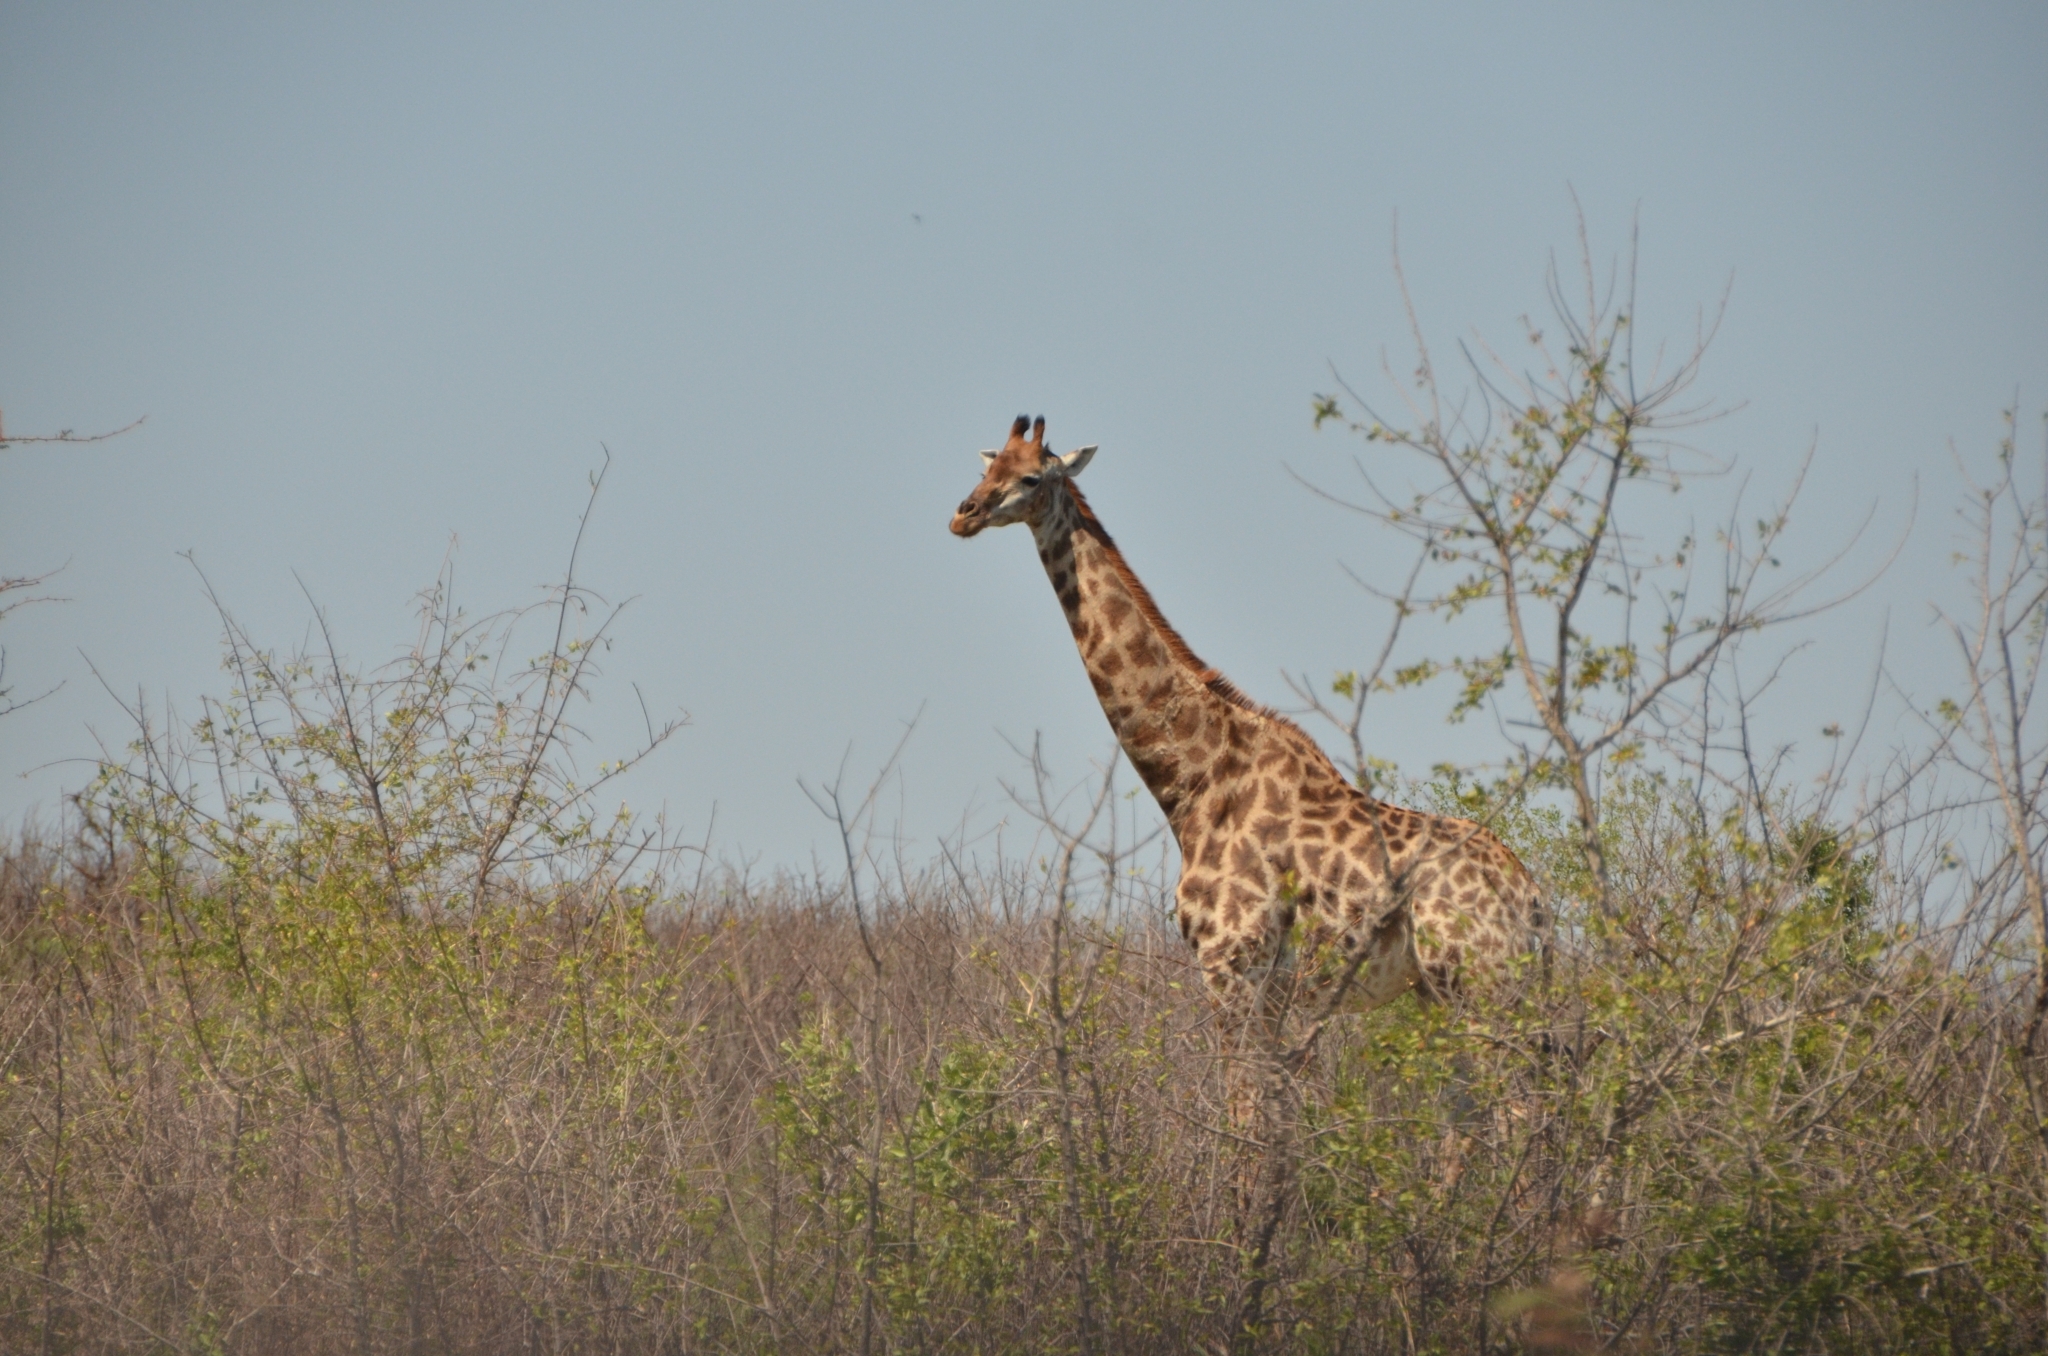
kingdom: Animalia
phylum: Chordata
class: Mammalia
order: Artiodactyla
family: Giraffidae
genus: Giraffa
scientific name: Giraffa giraffa
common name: Southern giraffe
